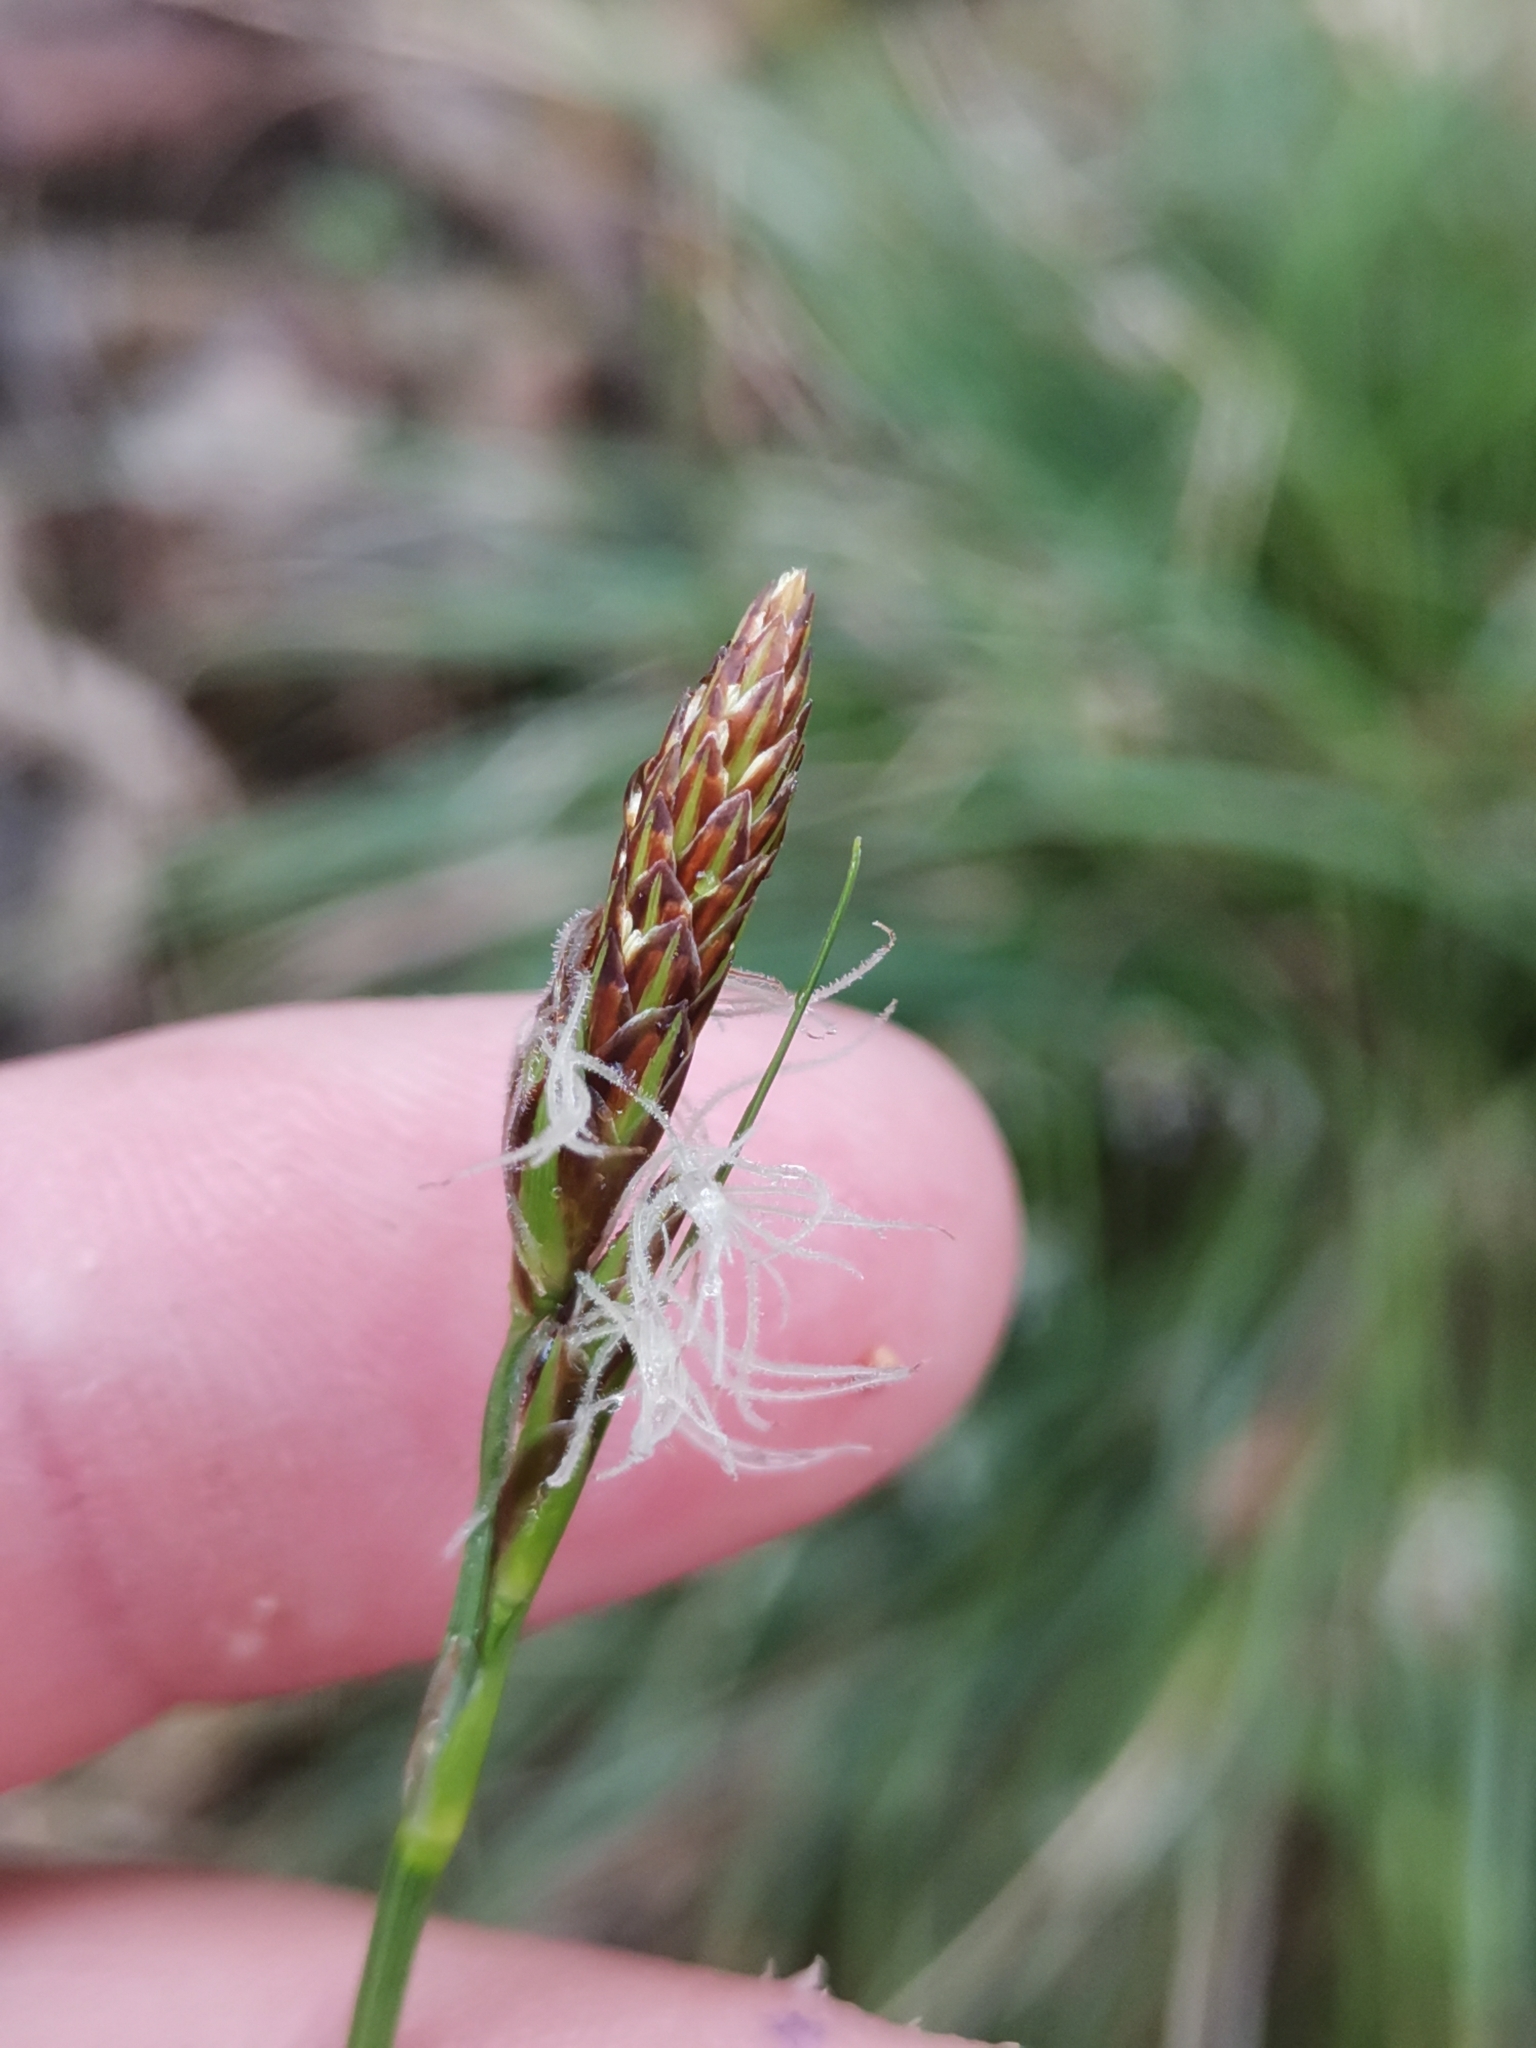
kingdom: Plantae
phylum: Tracheophyta
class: Liliopsida
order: Poales
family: Cyperaceae
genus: Carex
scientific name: Carex halleriana
